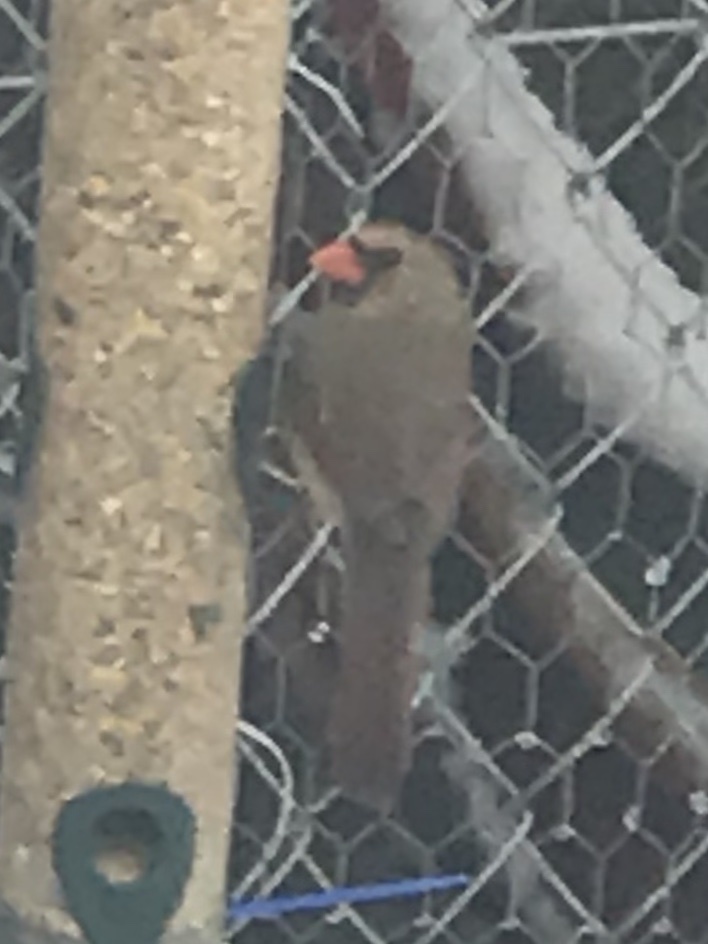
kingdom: Animalia
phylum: Chordata
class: Aves
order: Passeriformes
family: Cardinalidae
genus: Cardinalis
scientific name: Cardinalis cardinalis
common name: Northern cardinal
